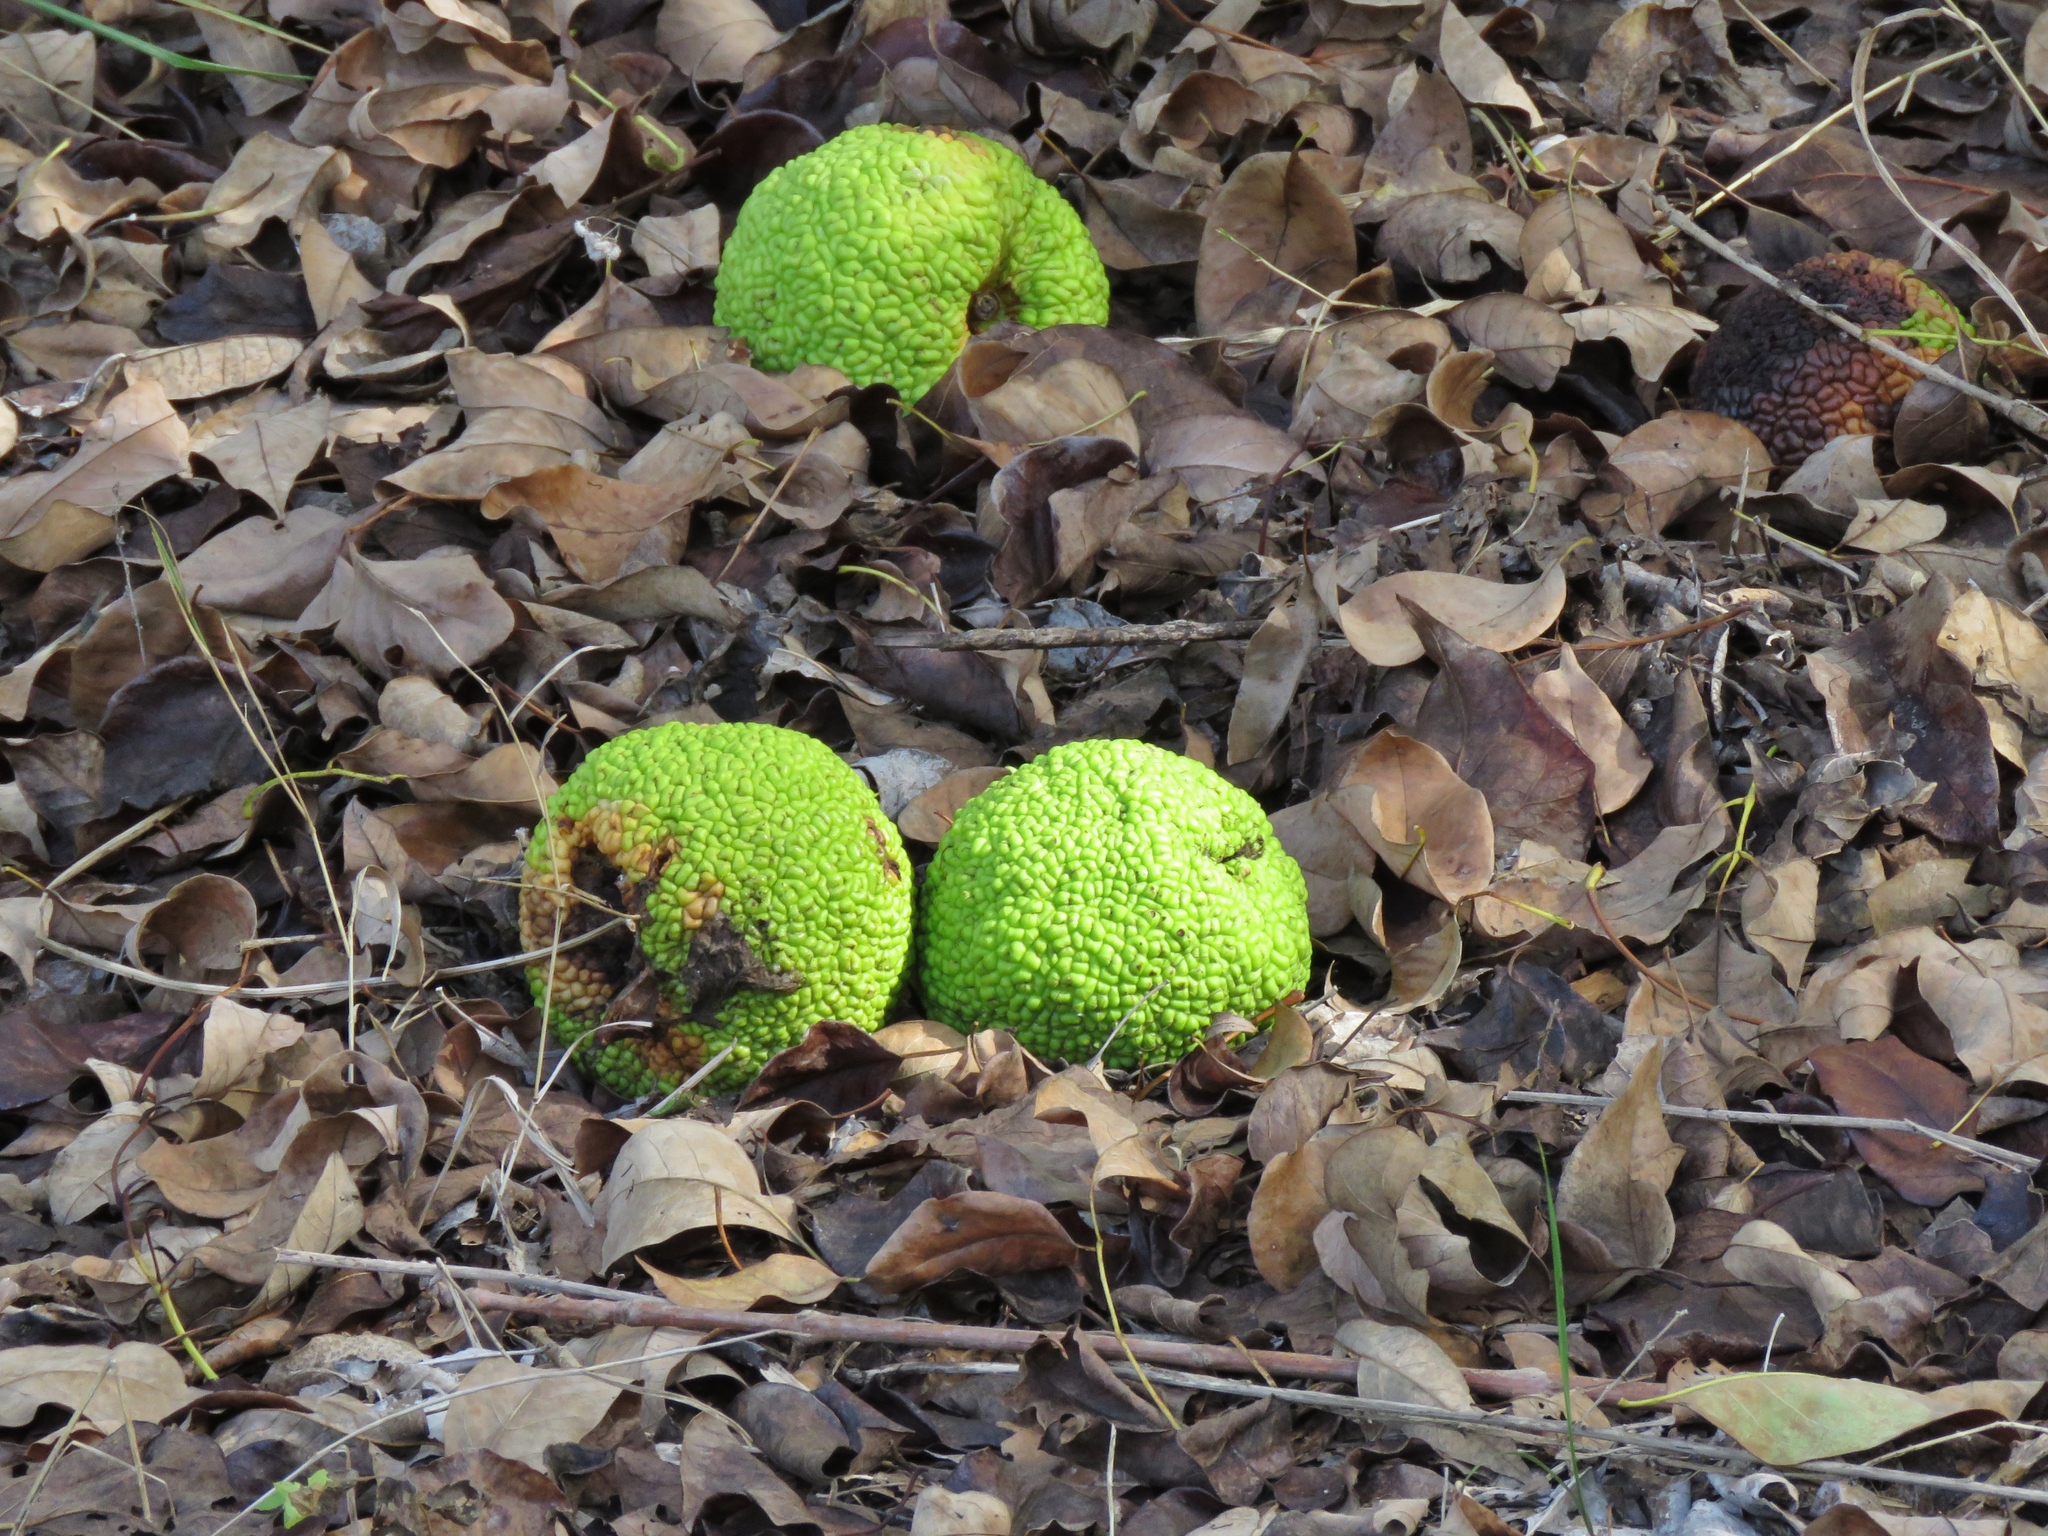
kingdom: Plantae
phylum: Tracheophyta
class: Magnoliopsida
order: Rosales
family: Moraceae
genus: Maclura
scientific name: Maclura pomifera
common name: Osage-orange
